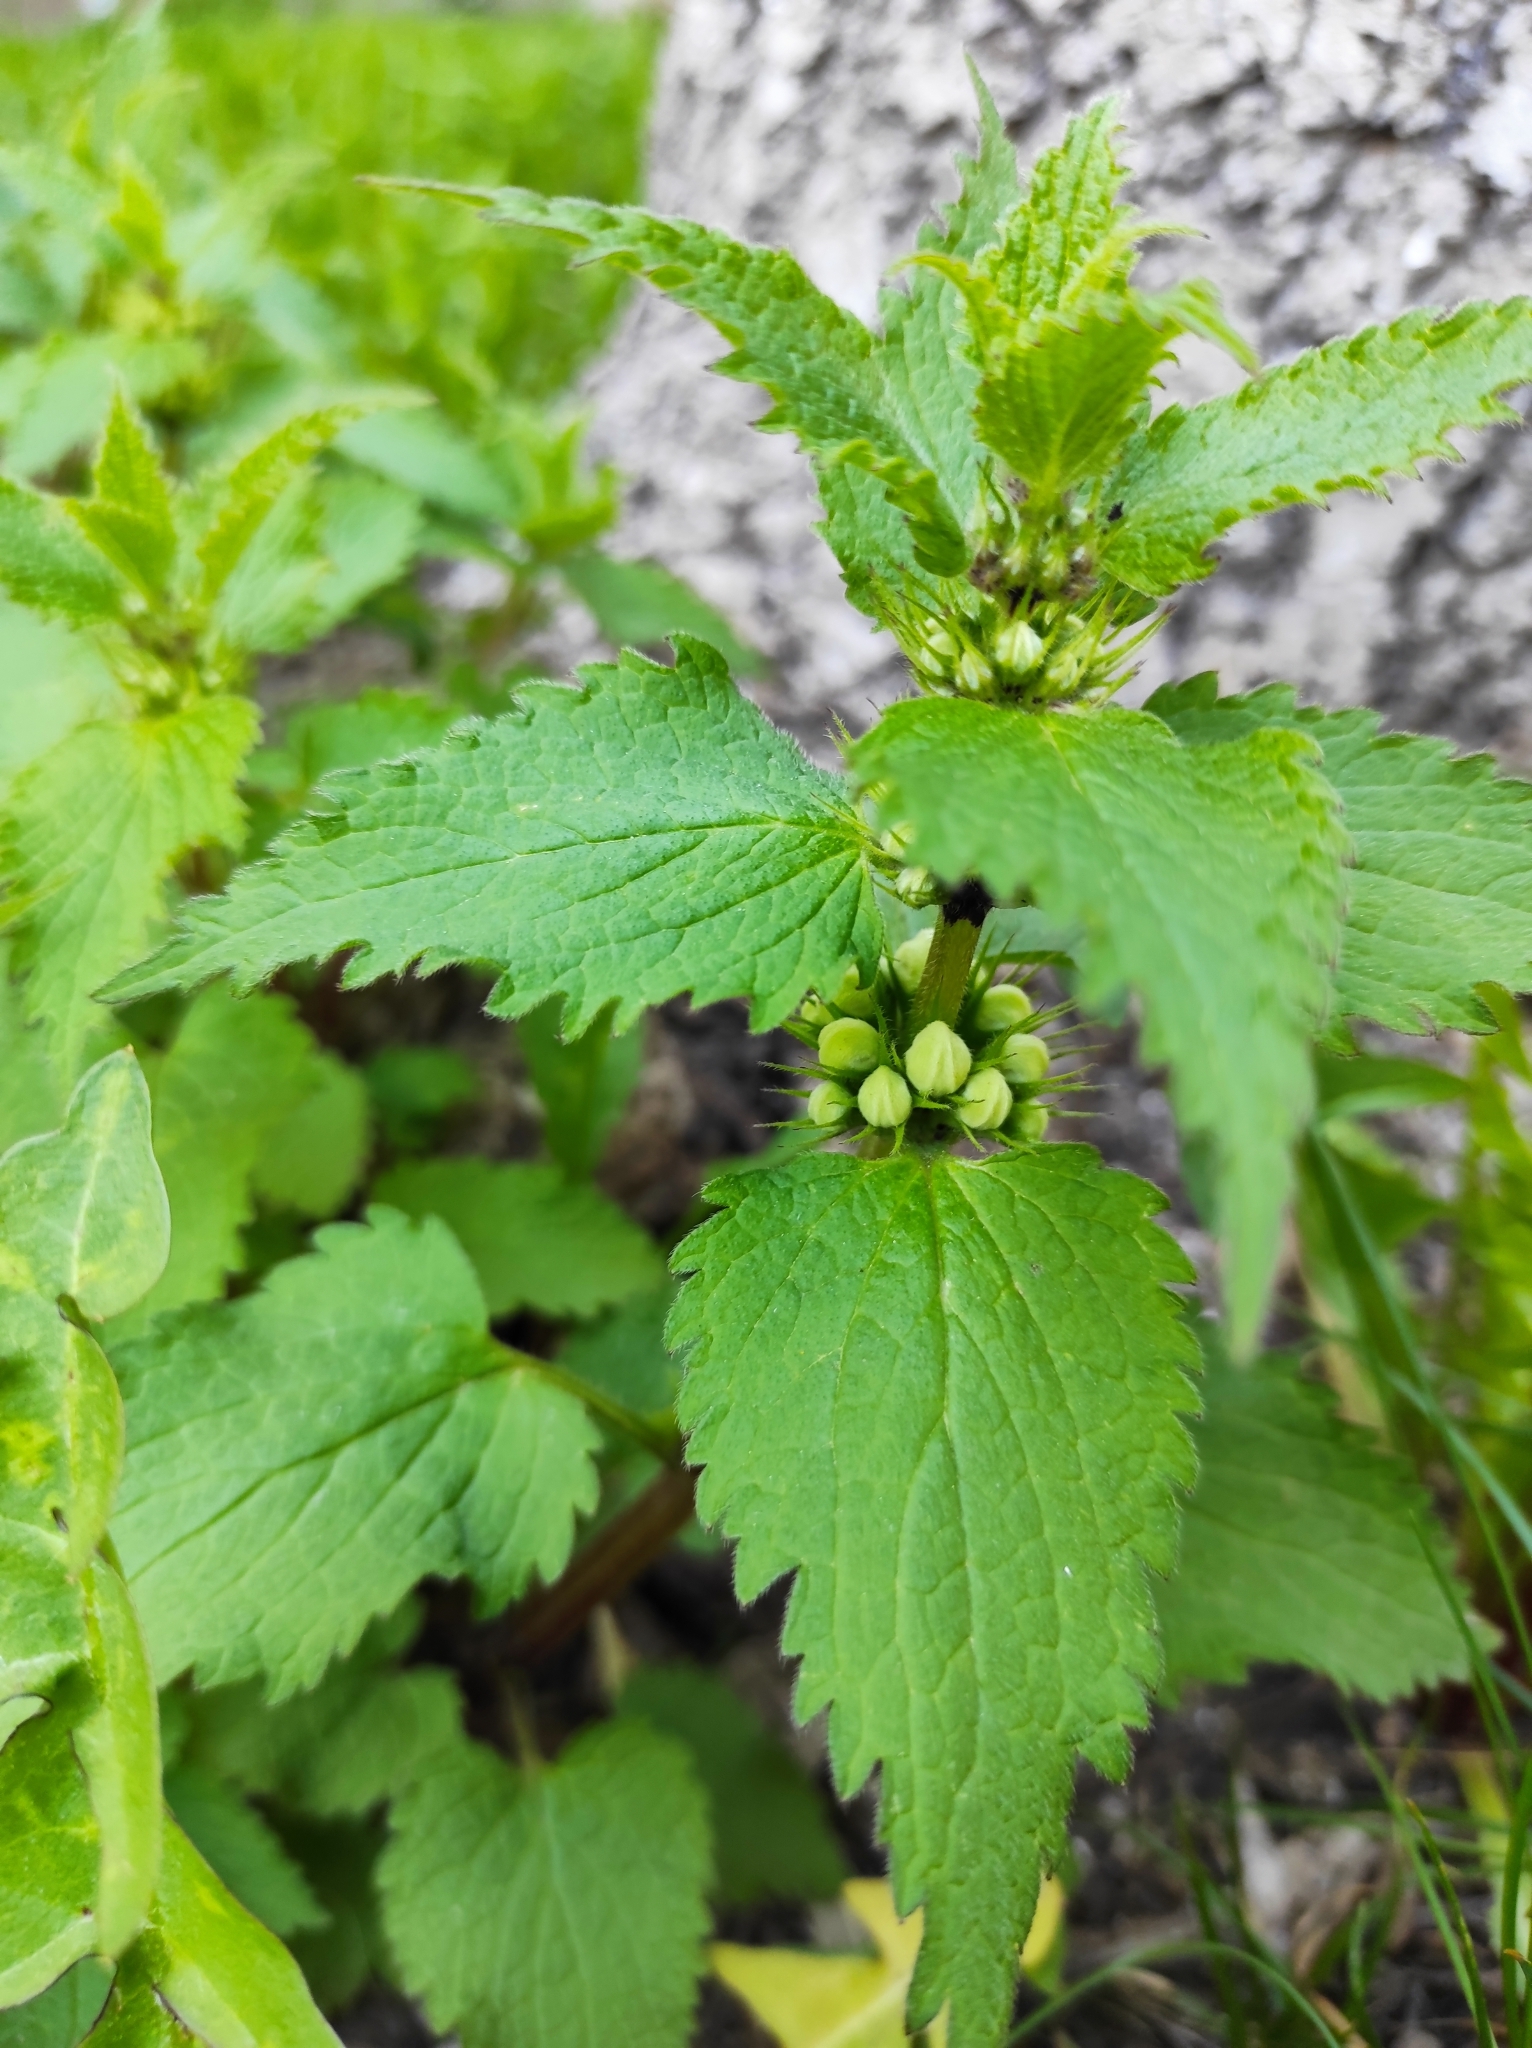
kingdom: Plantae
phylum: Tracheophyta
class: Magnoliopsida
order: Lamiales
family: Lamiaceae
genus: Lamium
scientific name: Lamium album
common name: White dead-nettle
